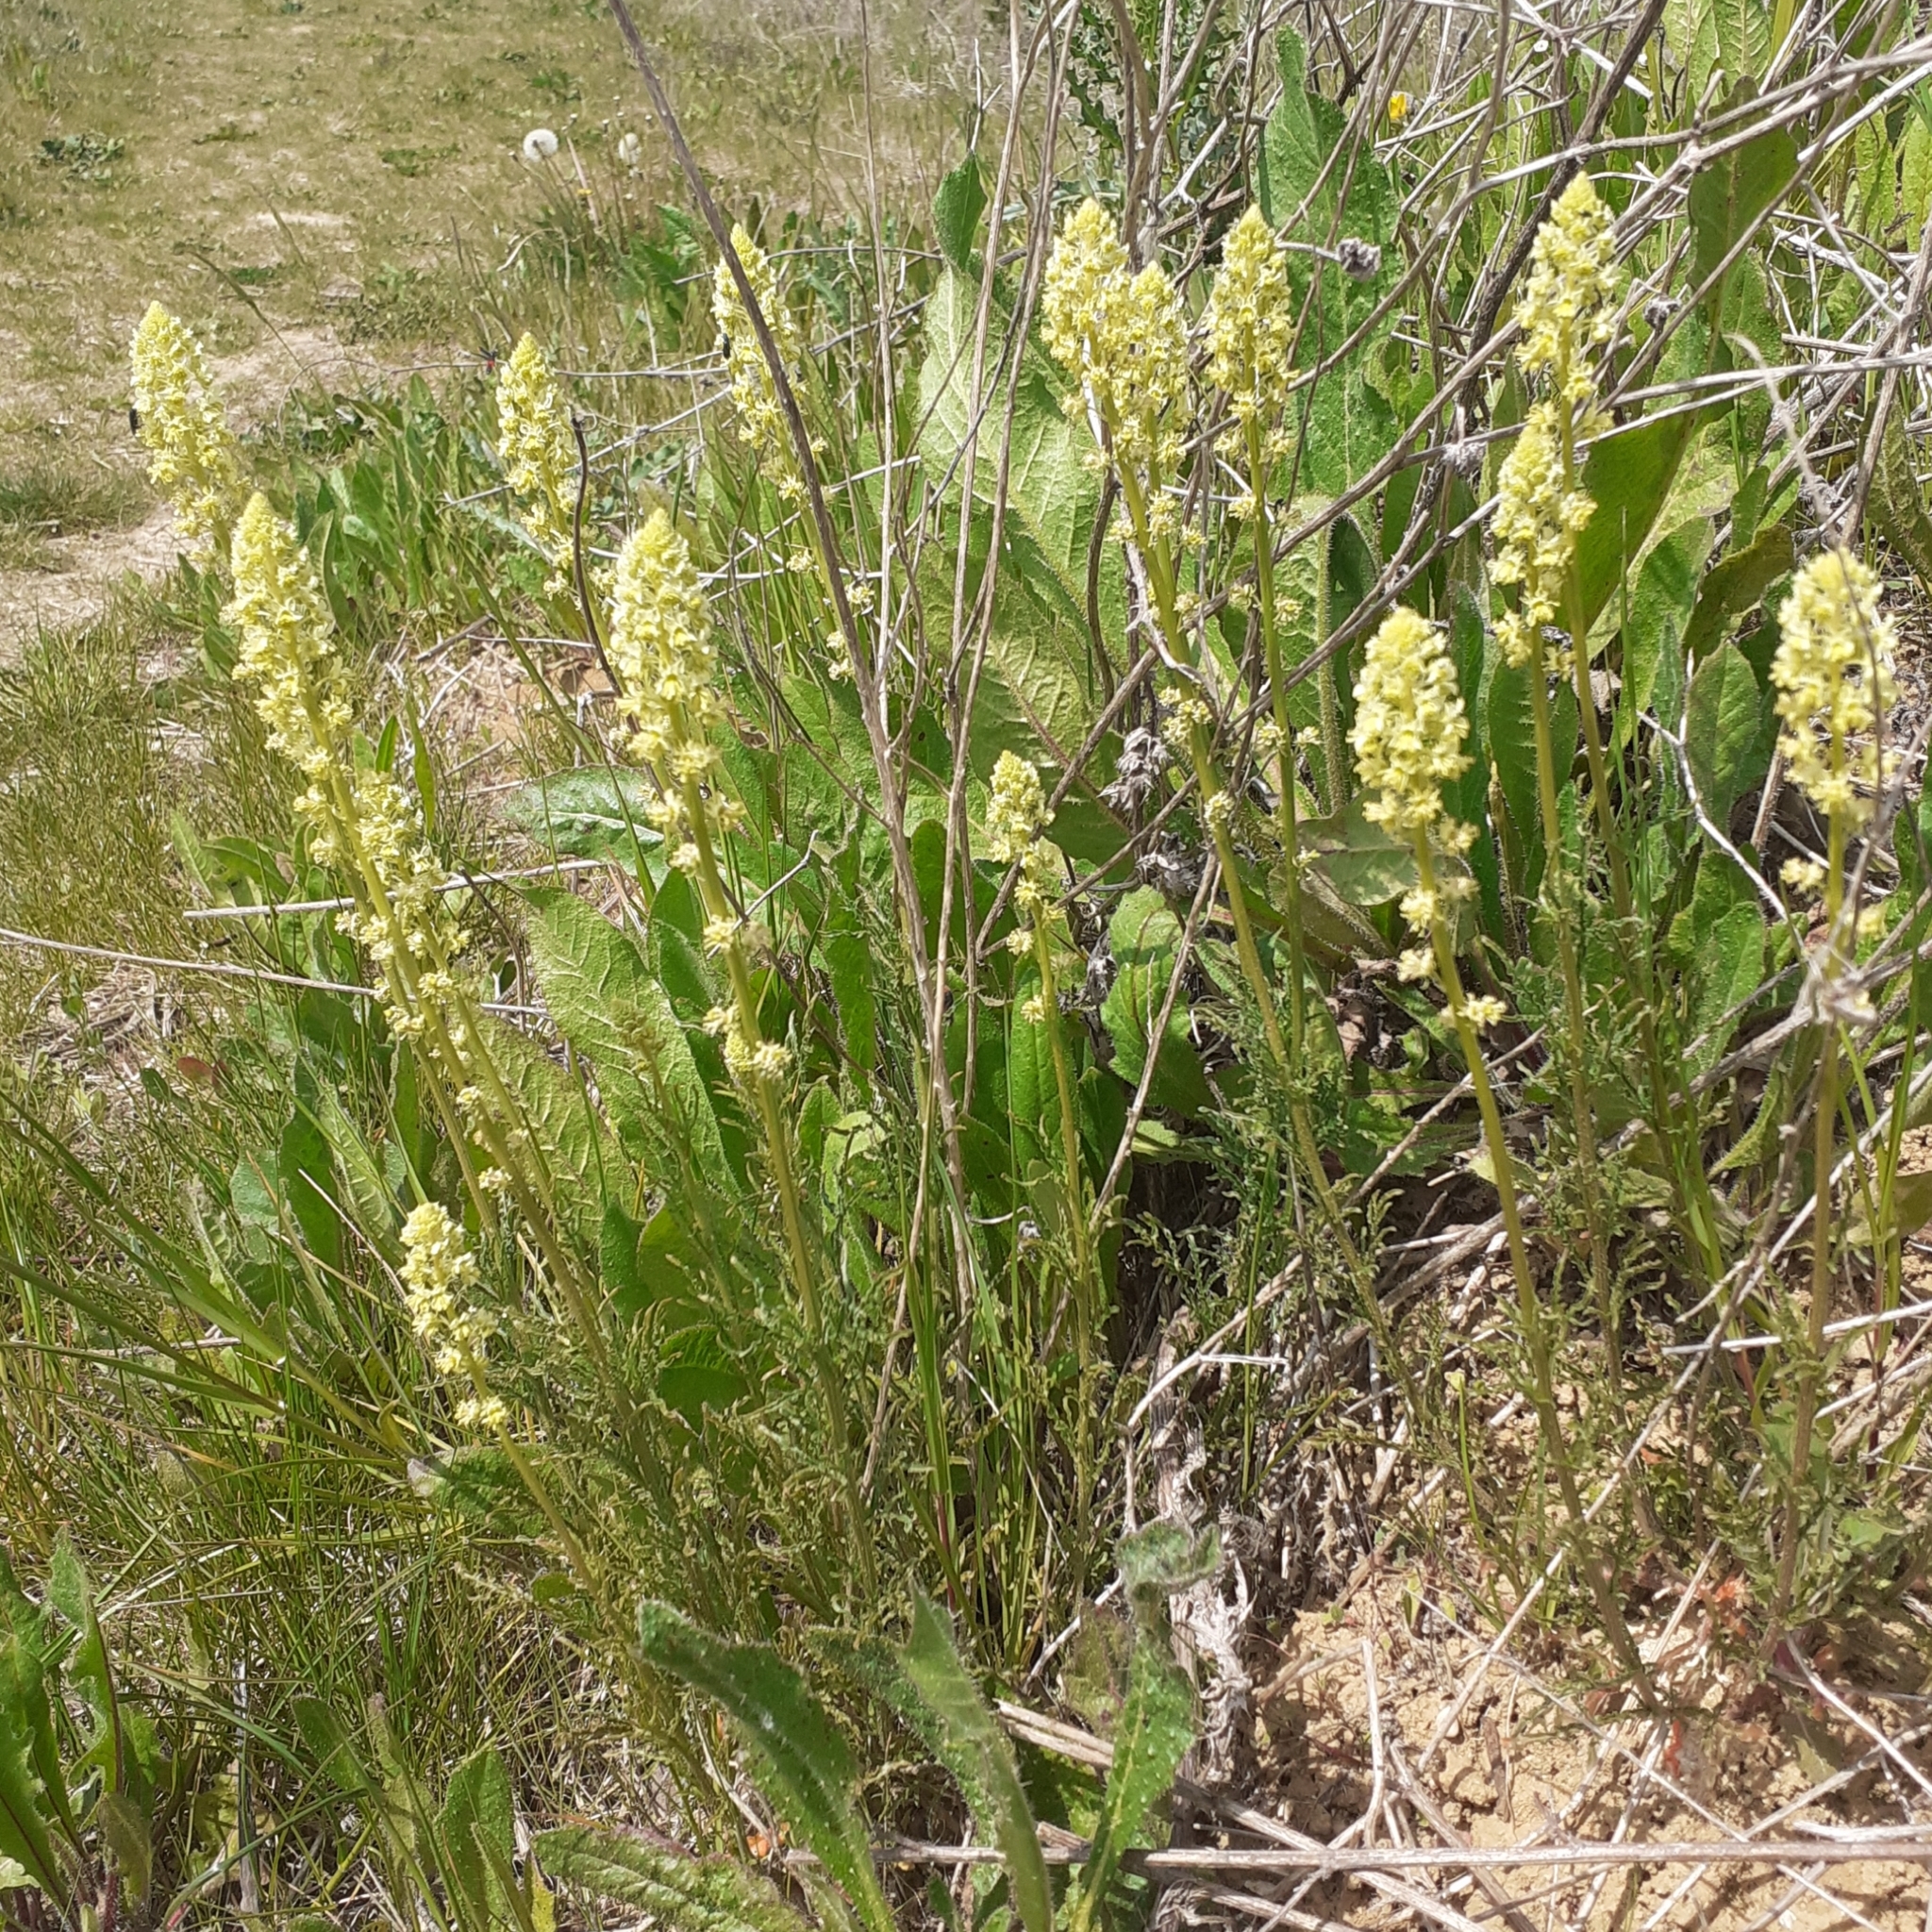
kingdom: Plantae
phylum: Tracheophyta
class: Magnoliopsida
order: Brassicales
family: Resedaceae
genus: Reseda
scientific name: Reseda lutea
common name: Wild mignonette
